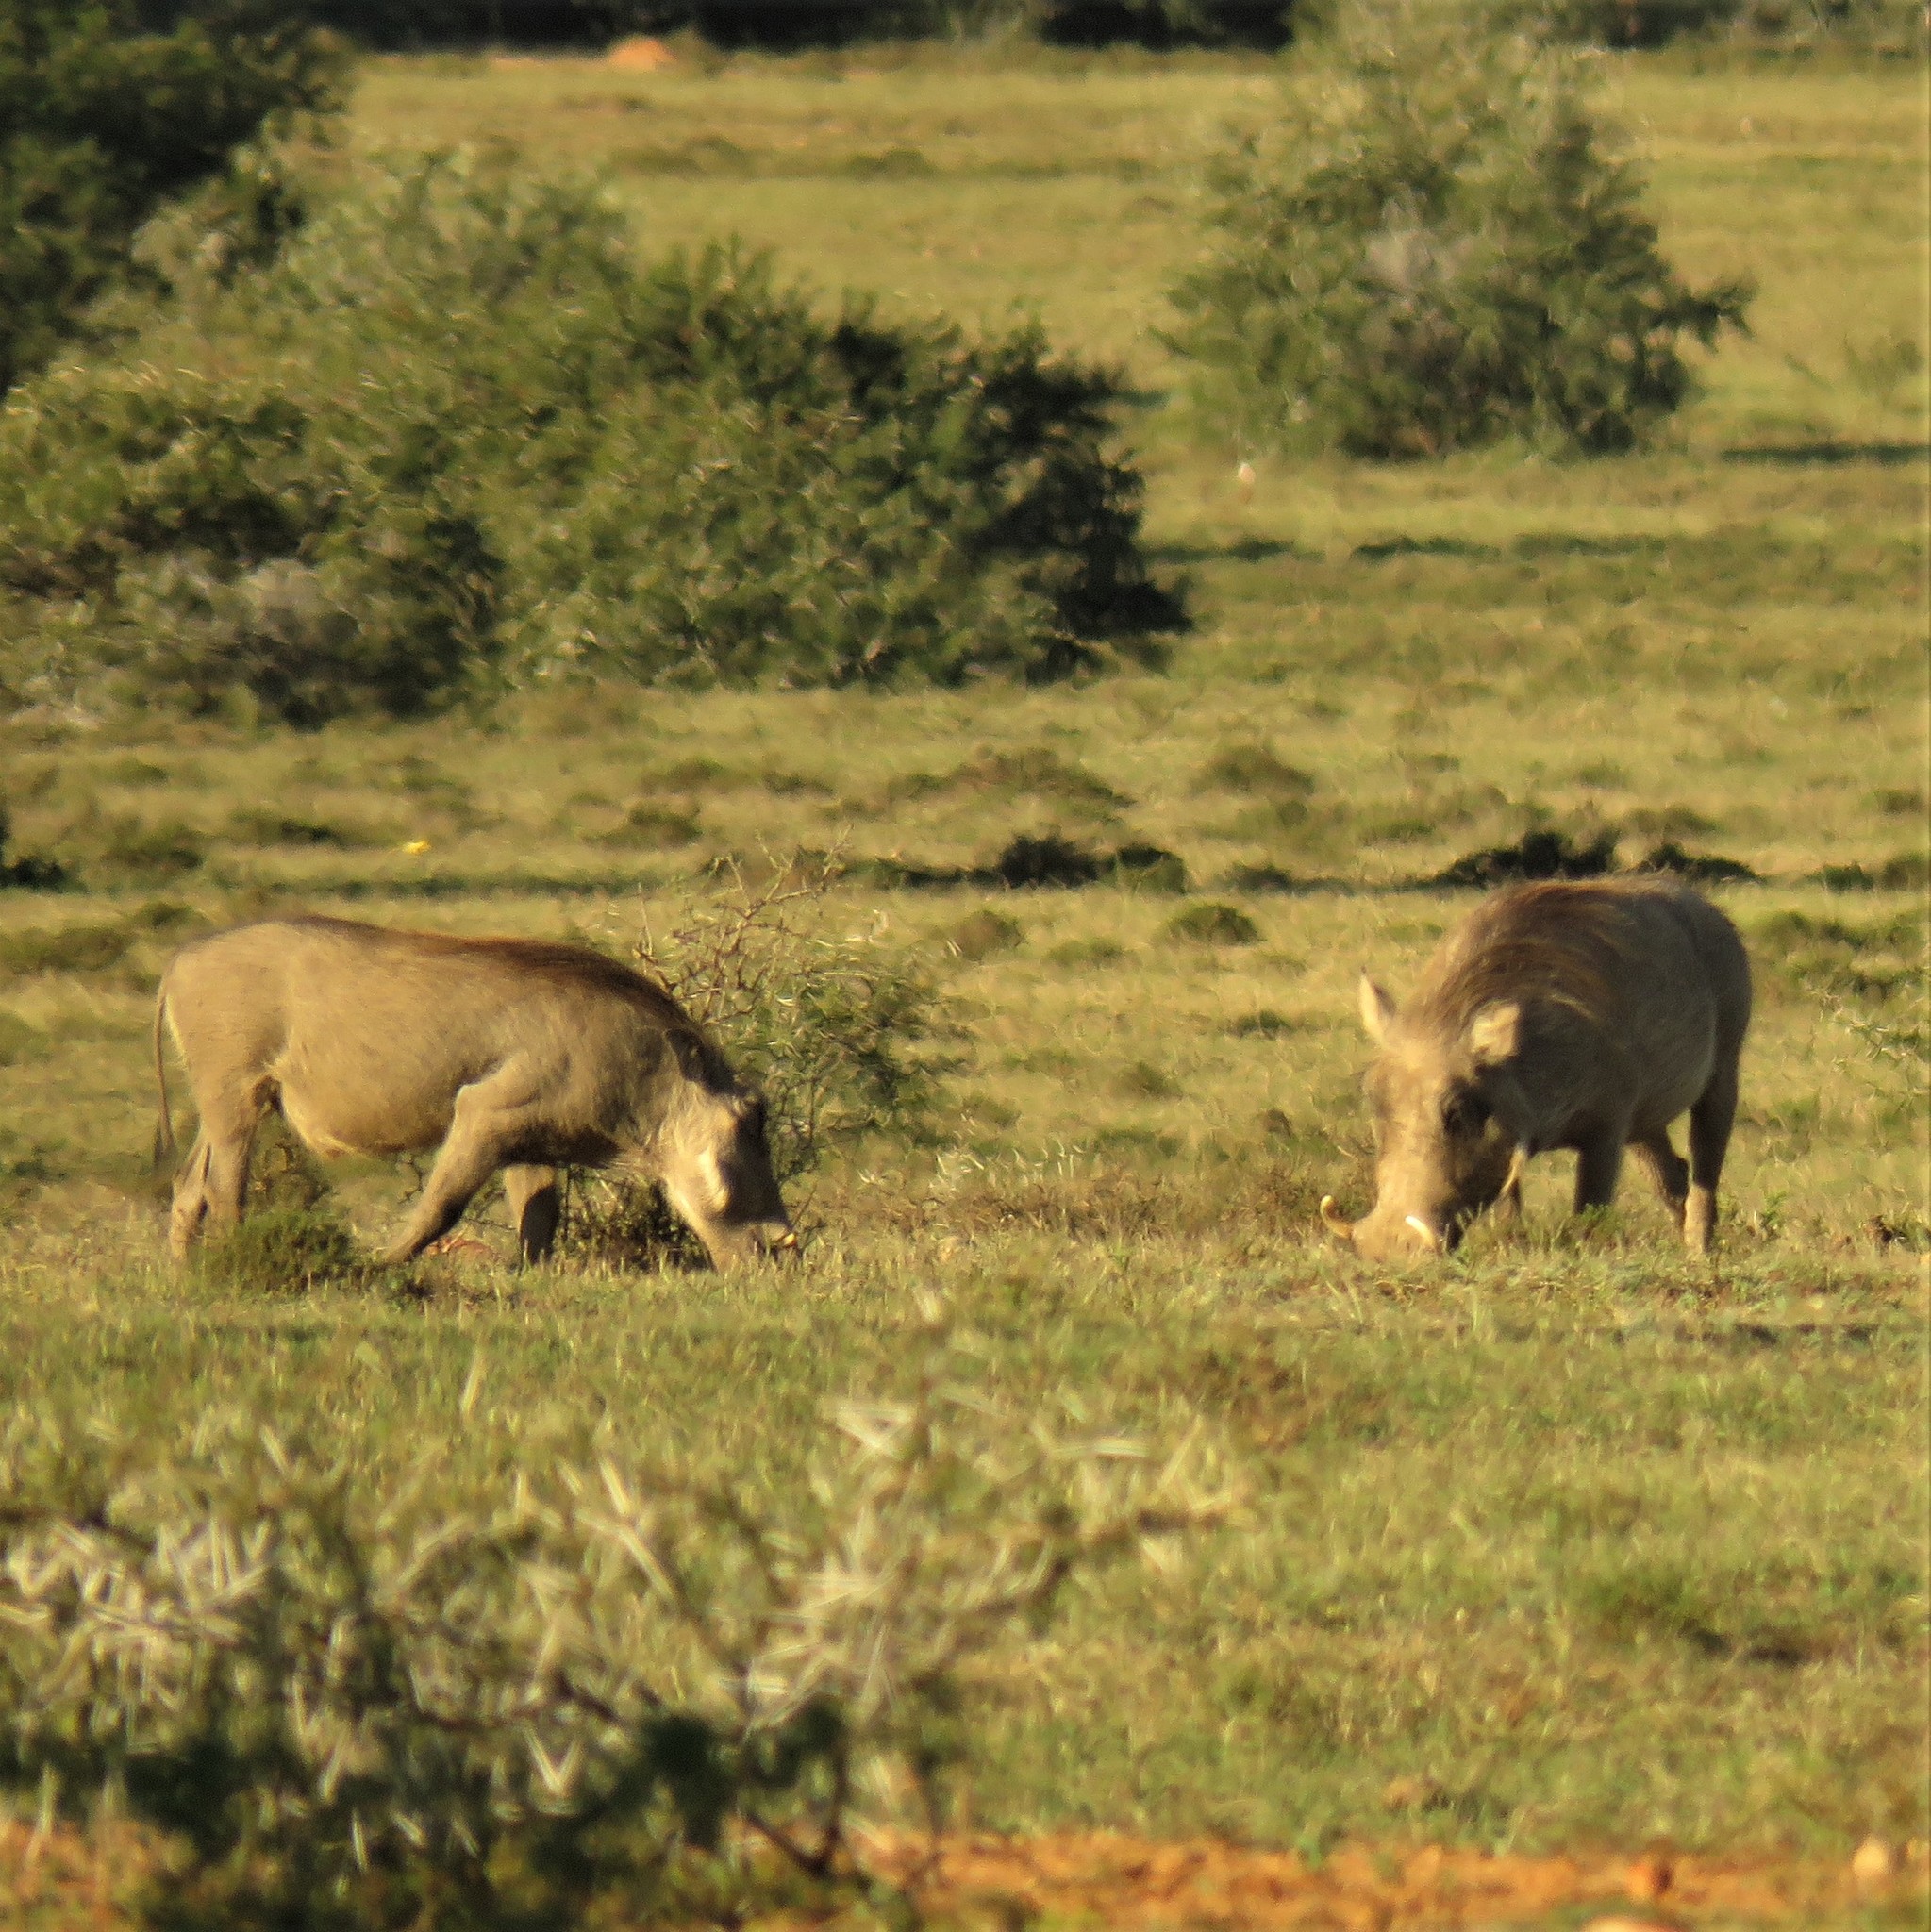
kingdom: Animalia
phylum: Chordata
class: Mammalia
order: Artiodactyla
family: Suidae
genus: Phacochoerus
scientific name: Phacochoerus africanus
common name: Common warthog
